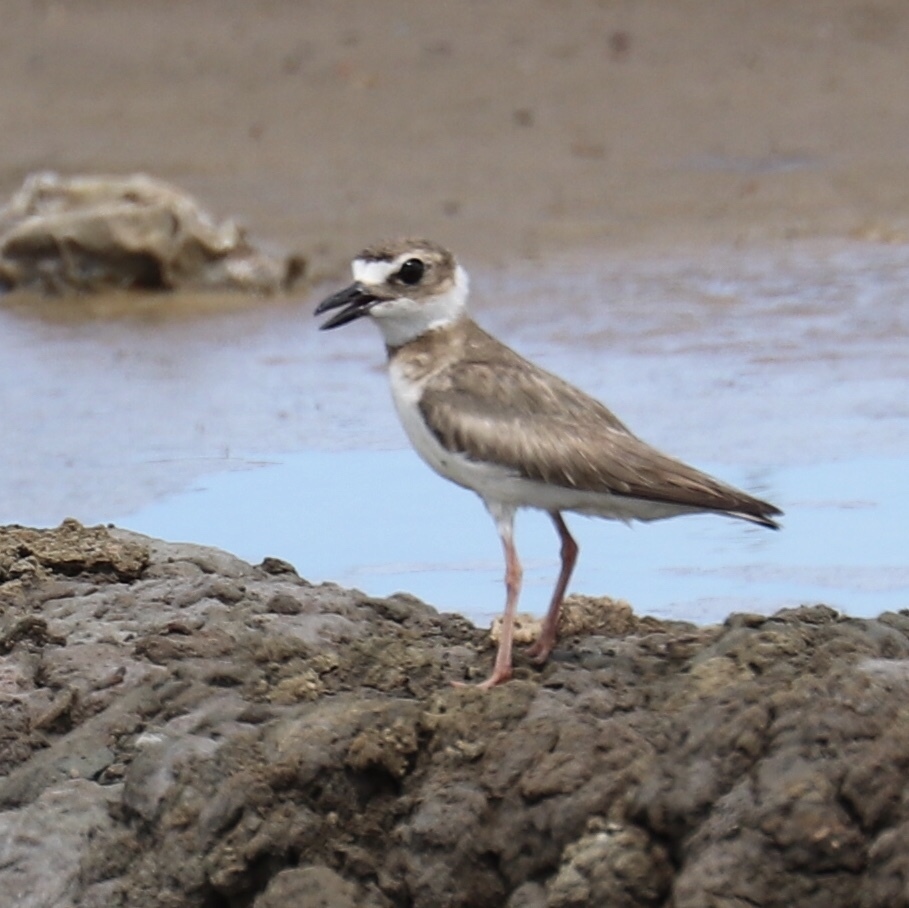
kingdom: Animalia
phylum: Chordata
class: Aves
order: Charadriiformes
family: Charadriidae
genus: Anarhynchus
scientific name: Anarhynchus
